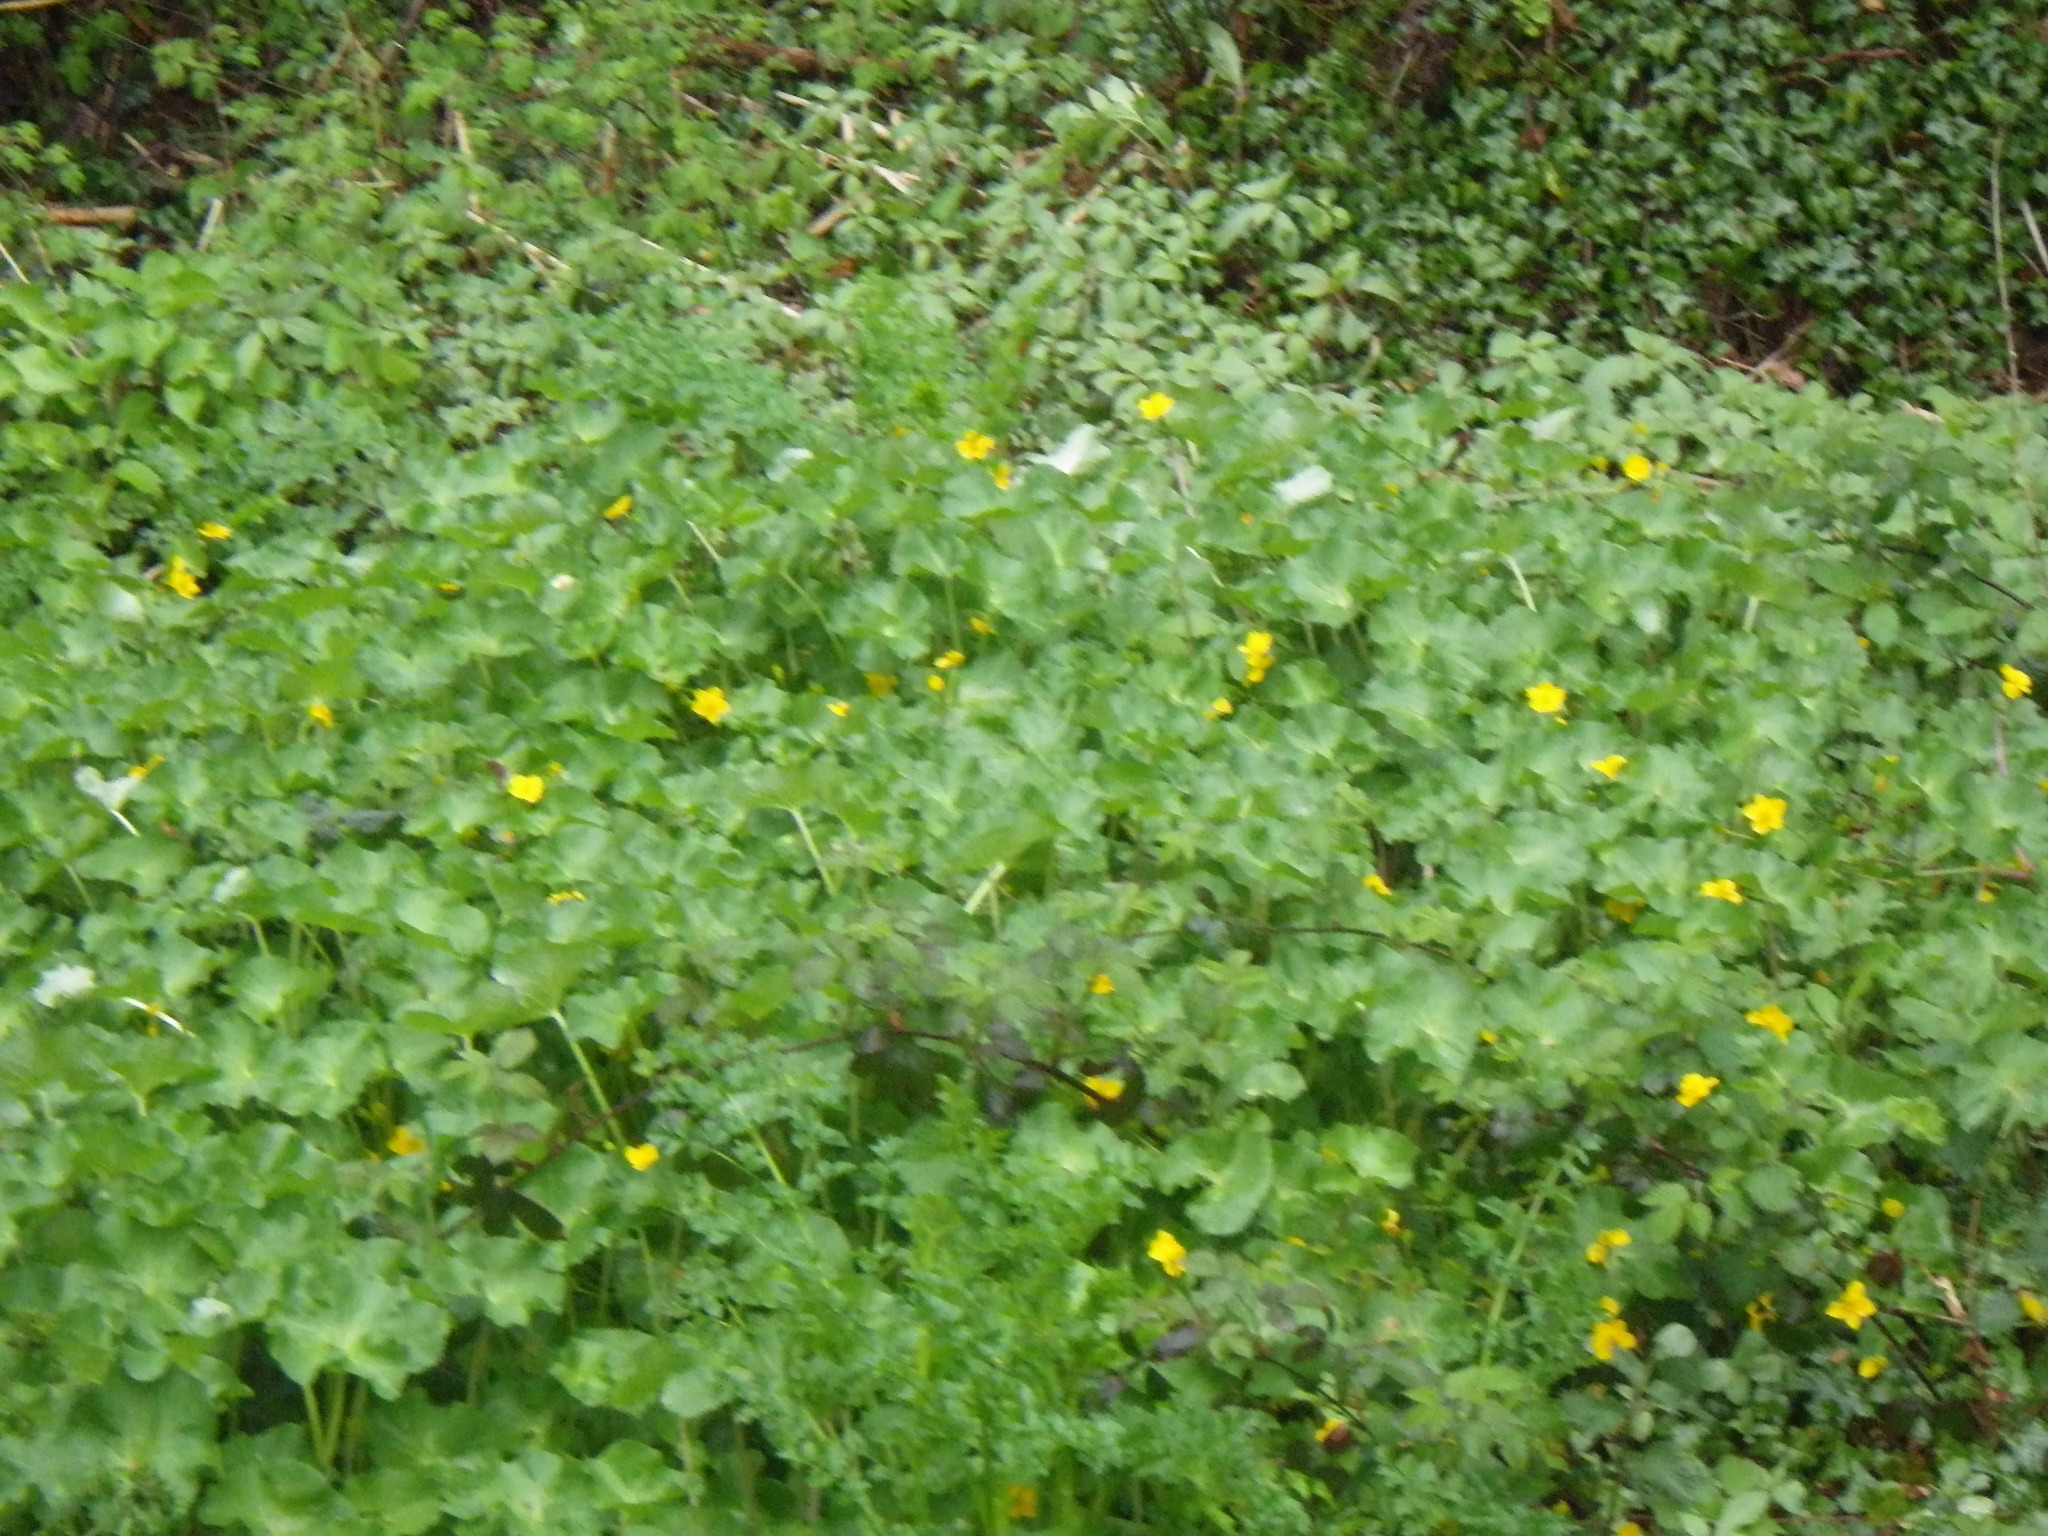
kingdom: Plantae
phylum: Tracheophyta
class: Magnoliopsida
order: Ranunculales
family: Ranunculaceae
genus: Caltha
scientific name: Caltha palustris
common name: Marsh marigold
